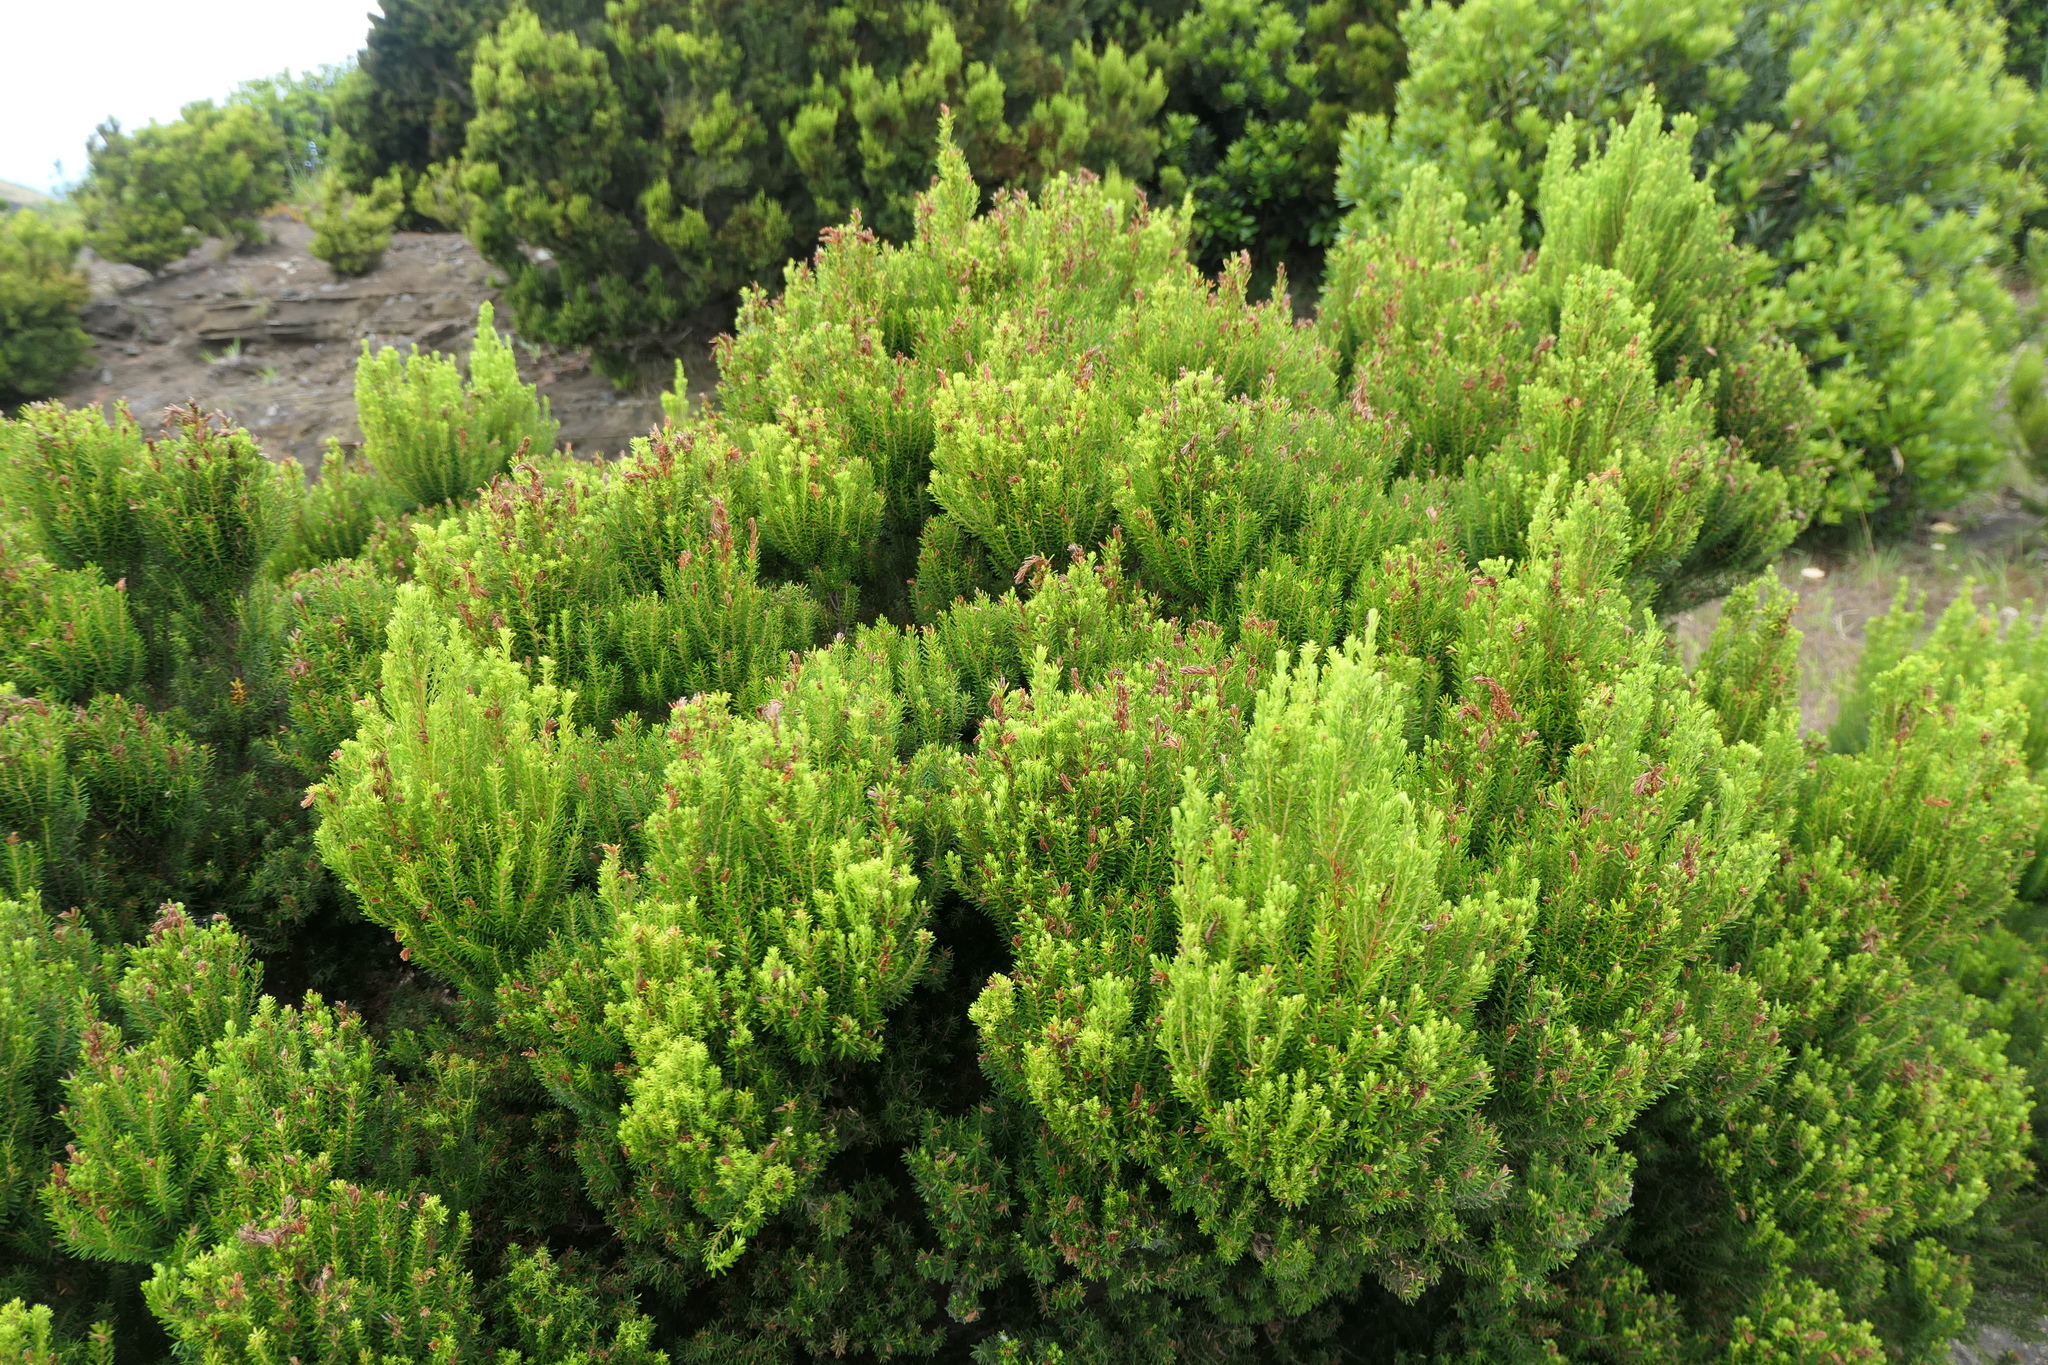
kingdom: Plantae
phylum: Tracheophyta
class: Magnoliopsida
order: Ericales
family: Ericaceae
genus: Erica
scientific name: Erica azorica
